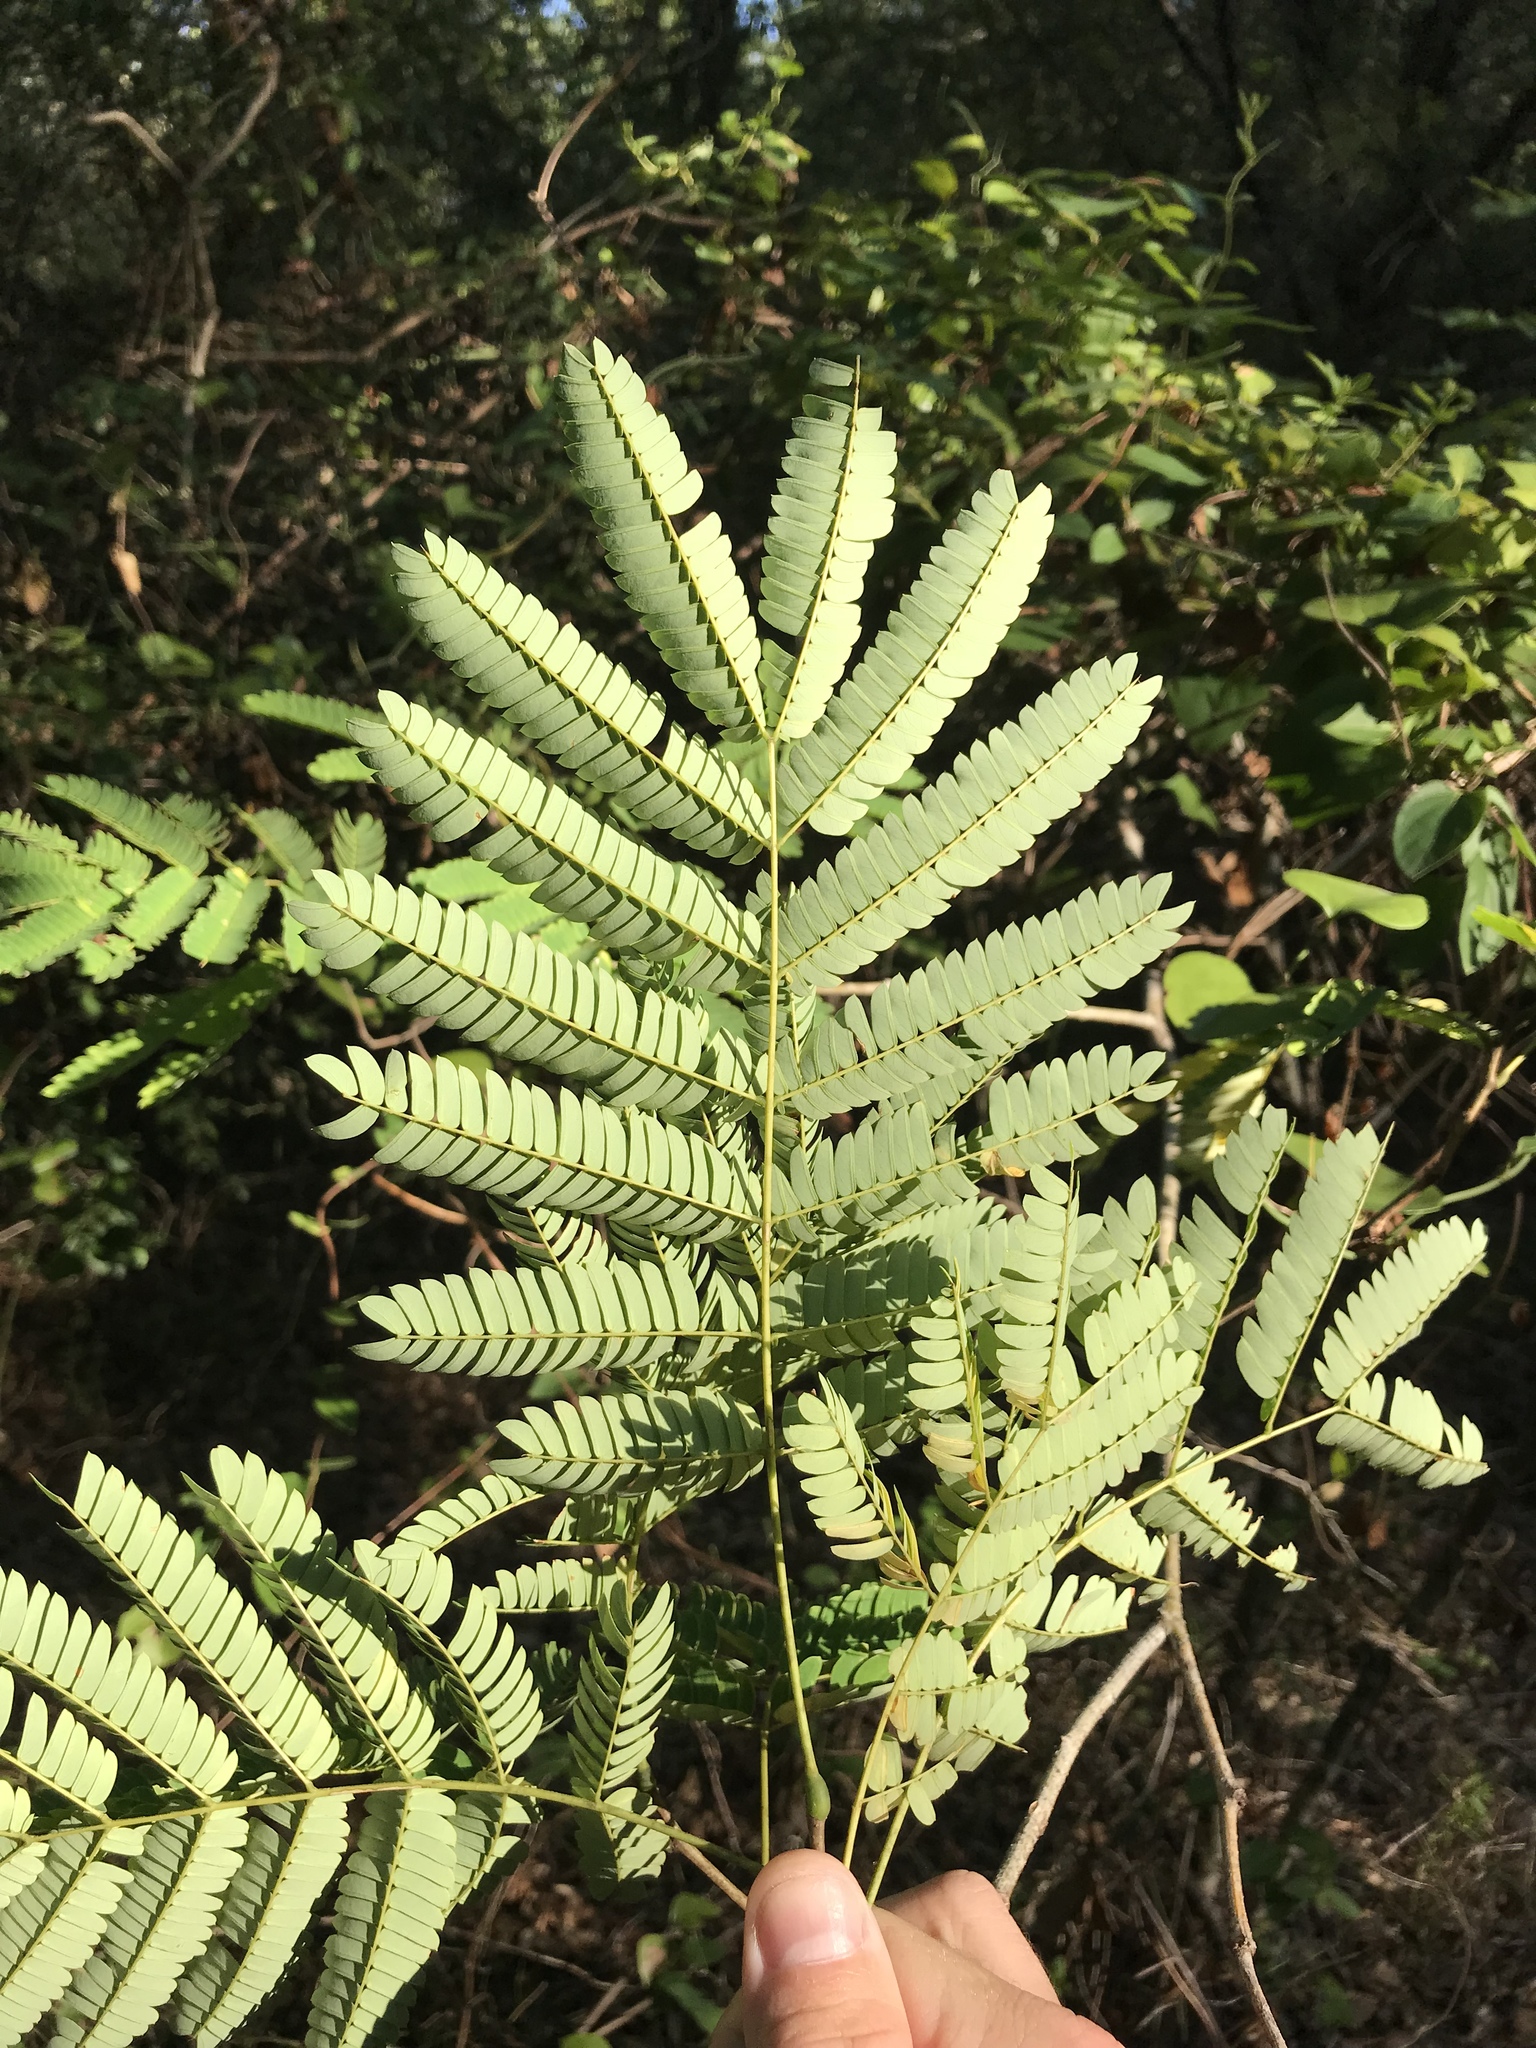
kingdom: Plantae
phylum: Tracheophyta
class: Magnoliopsida
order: Fabales
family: Fabaceae
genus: Albizia
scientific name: Albizia julibrissin
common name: Silktree
